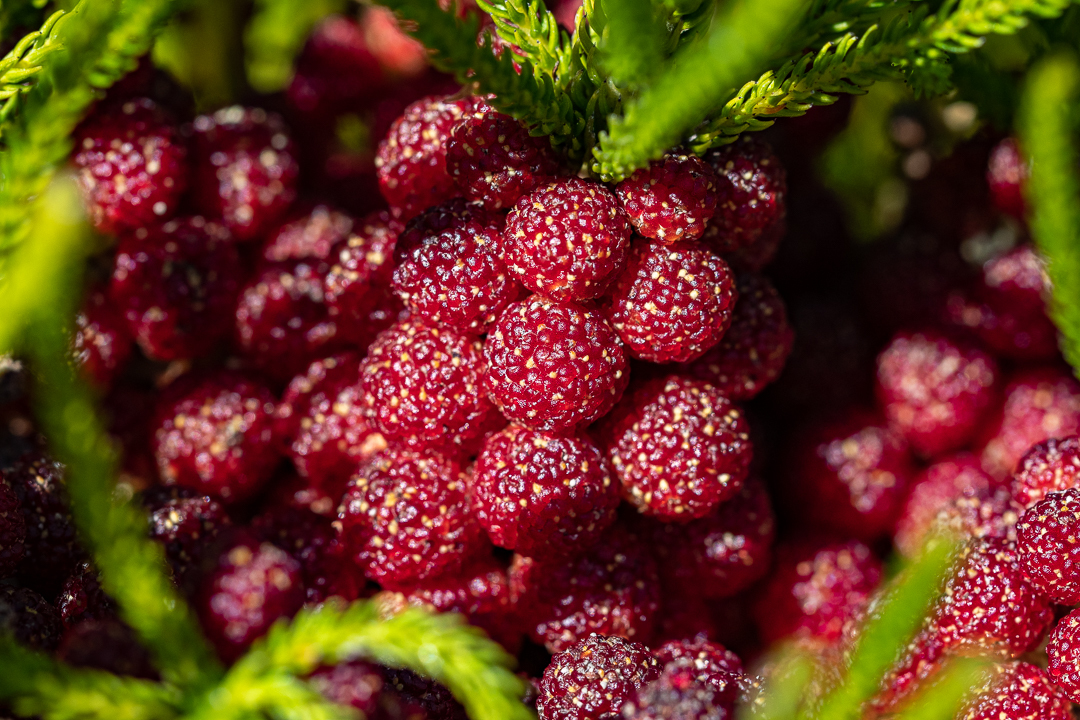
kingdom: Plantae
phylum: Tracheophyta
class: Magnoliopsida
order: Bruniales
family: Bruniaceae
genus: Berzelia
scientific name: Berzelia alopecurioides
